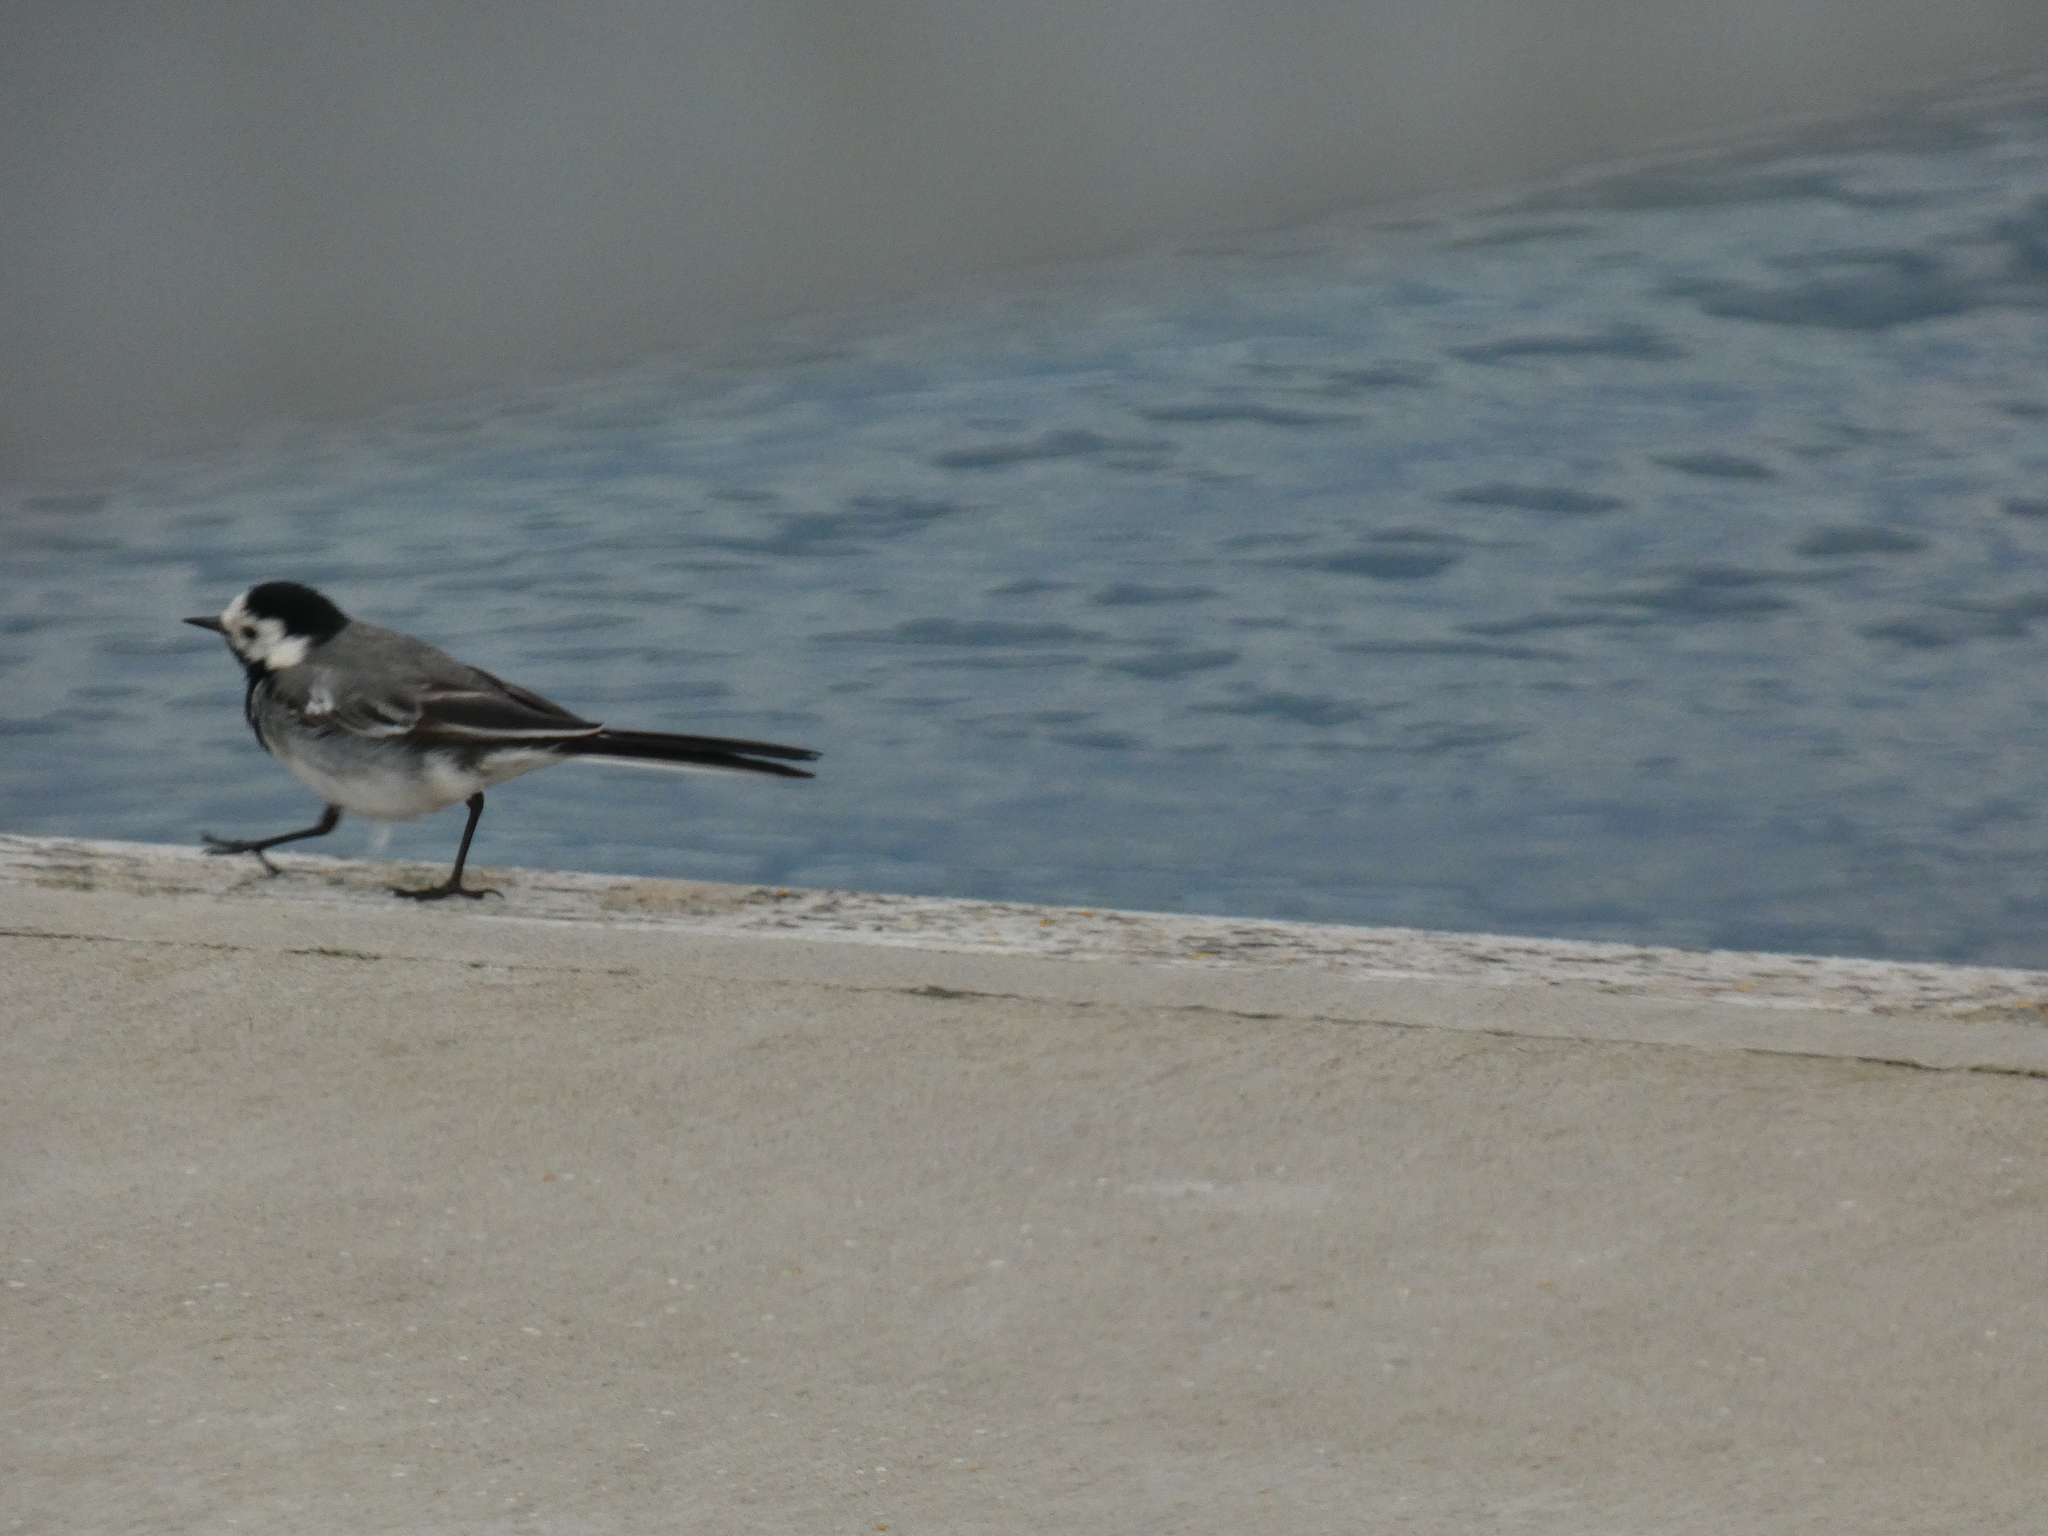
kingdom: Animalia
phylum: Chordata
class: Aves
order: Passeriformes
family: Motacillidae
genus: Motacilla
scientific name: Motacilla alba
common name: White wagtail
